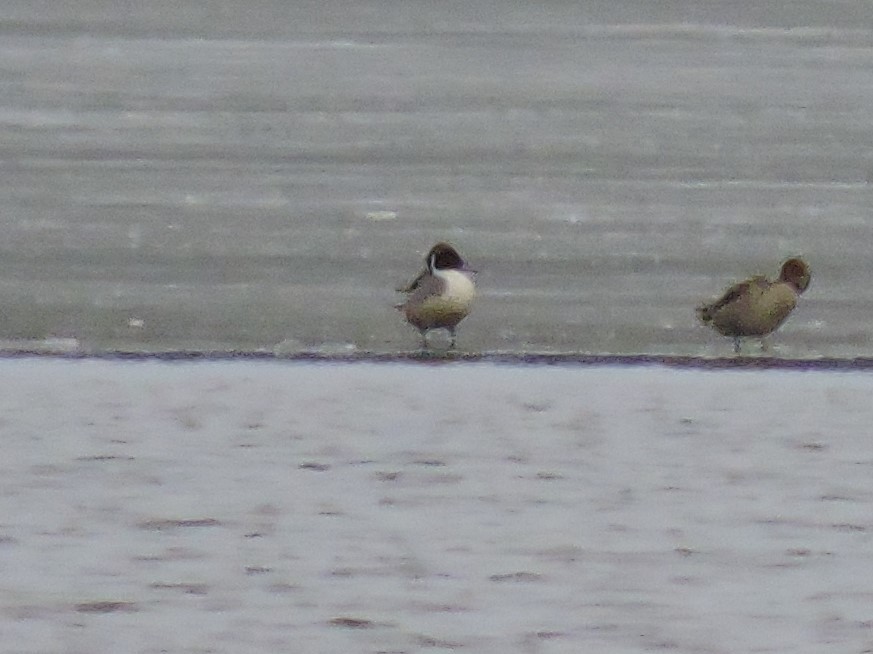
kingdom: Animalia
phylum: Chordata
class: Aves
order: Anseriformes
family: Anatidae
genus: Anas
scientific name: Anas acuta
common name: Northern pintail
